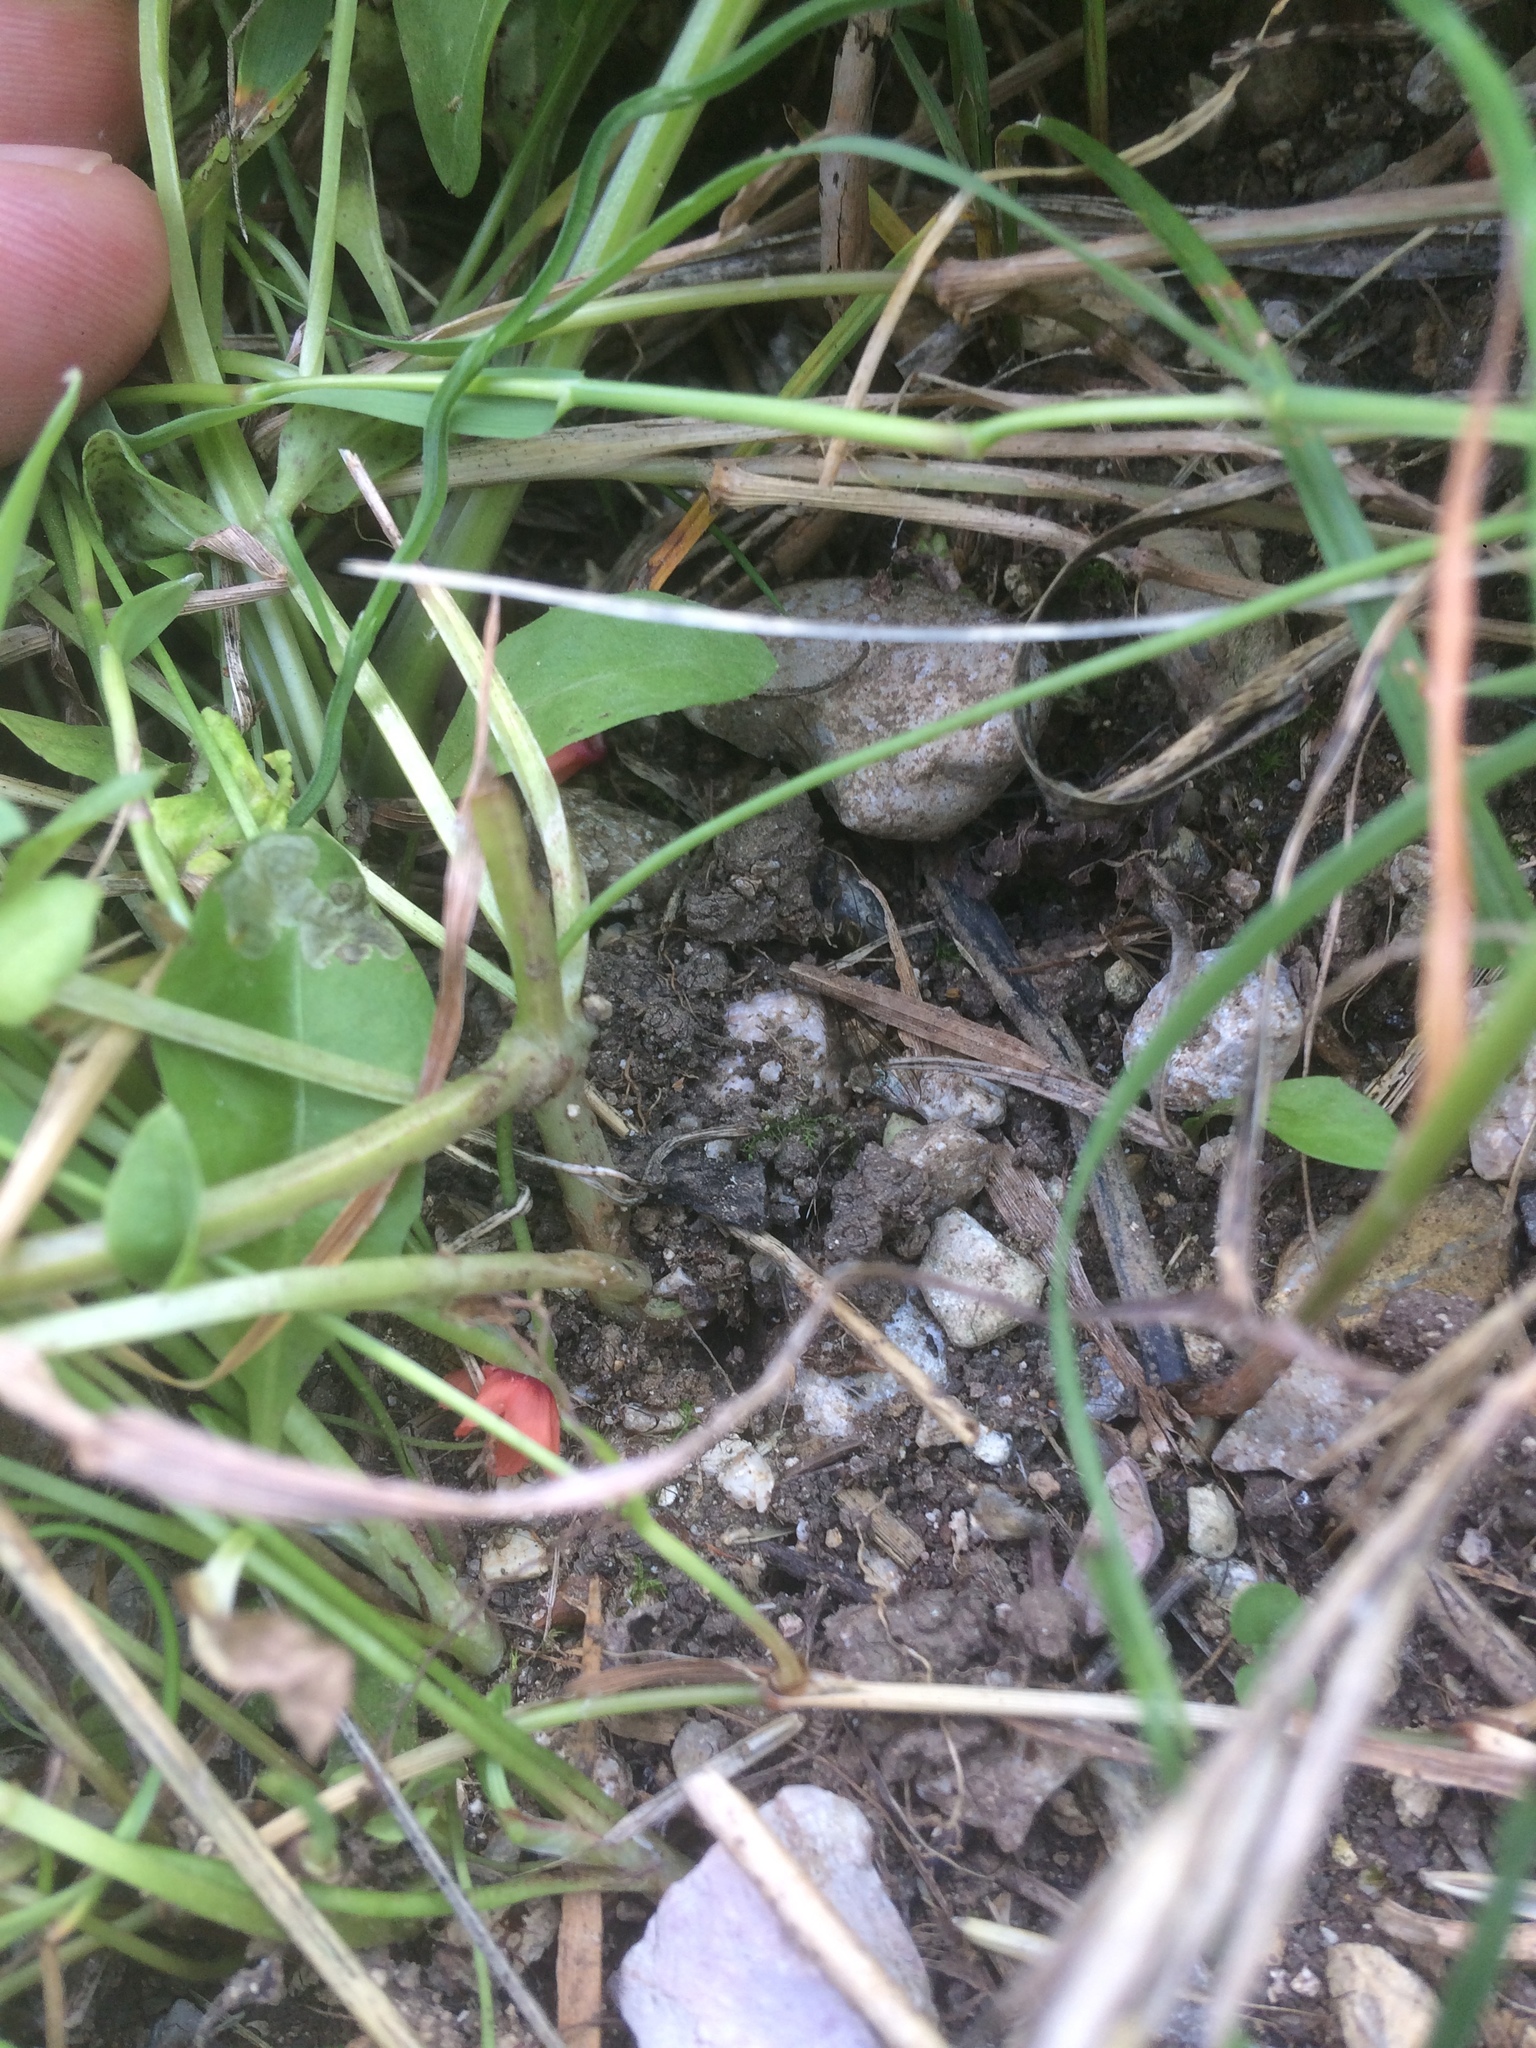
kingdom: Plantae
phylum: Tracheophyta
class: Magnoliopsida
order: Ericales
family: Primulaceae
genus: Lysimachia
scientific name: Lysimachia arvensis
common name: Scarlet pimpernel
